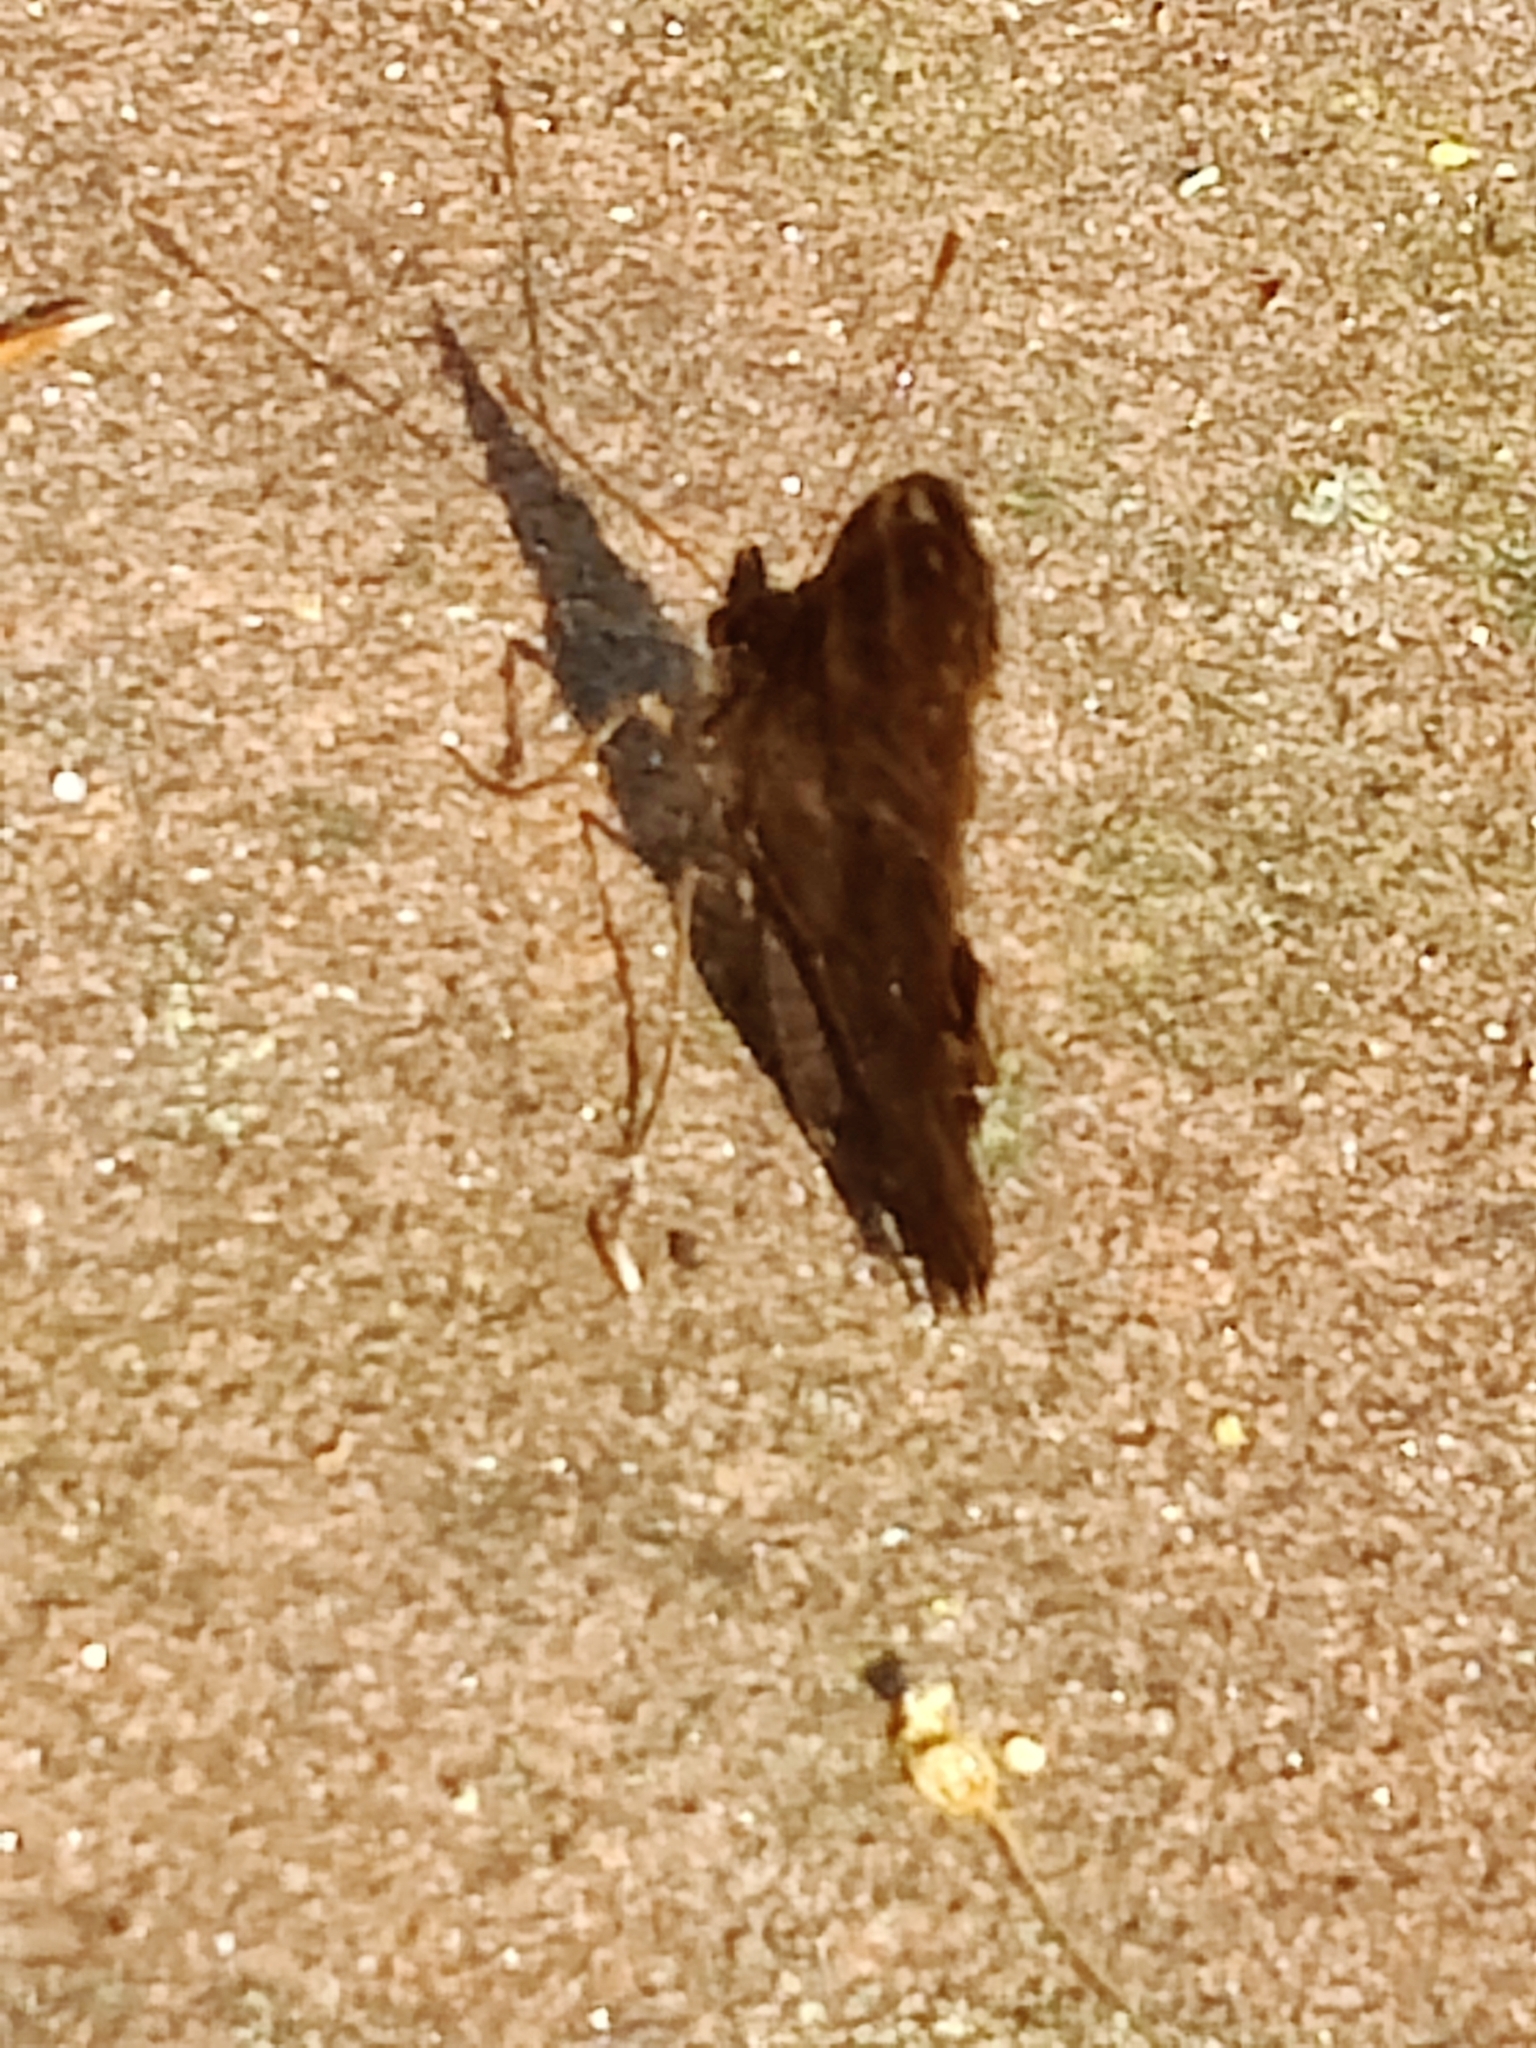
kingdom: Animalia
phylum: Arthropoda
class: Insecta
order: Lepidoptera
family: Nymphalidae
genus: Aglais
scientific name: Aglais io
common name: Peacock
